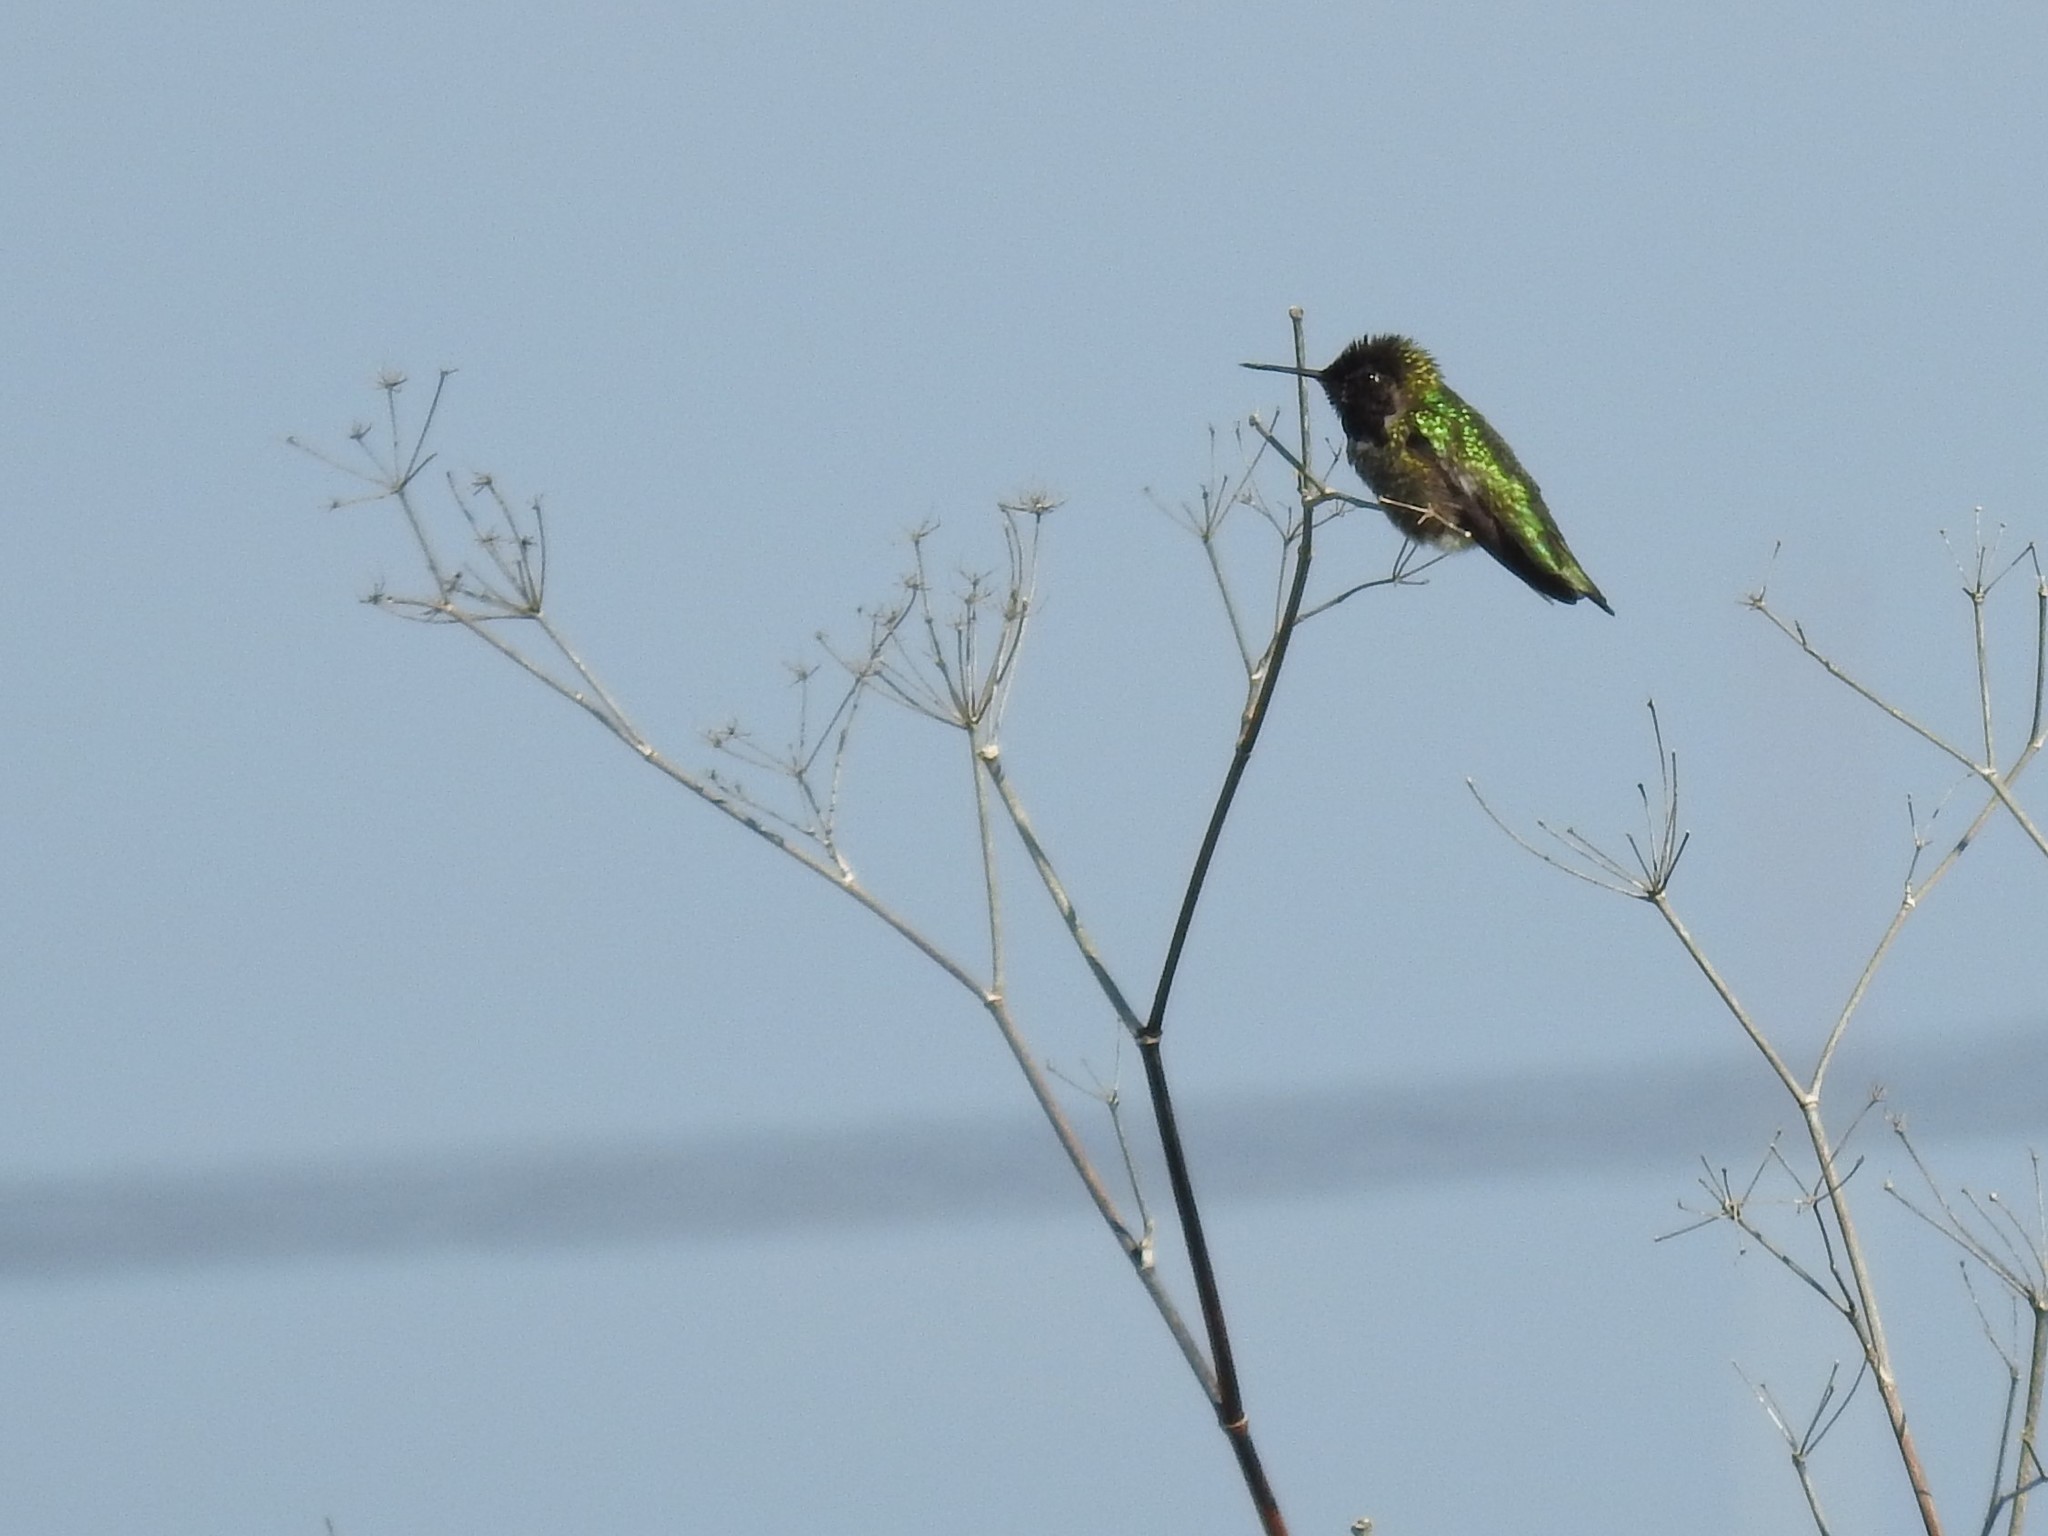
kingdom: Animalia
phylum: Chordata
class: Aves
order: Apodiformes
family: Trochilidae
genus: Calypte
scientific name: Calypte anna
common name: Anna's hummingbird
